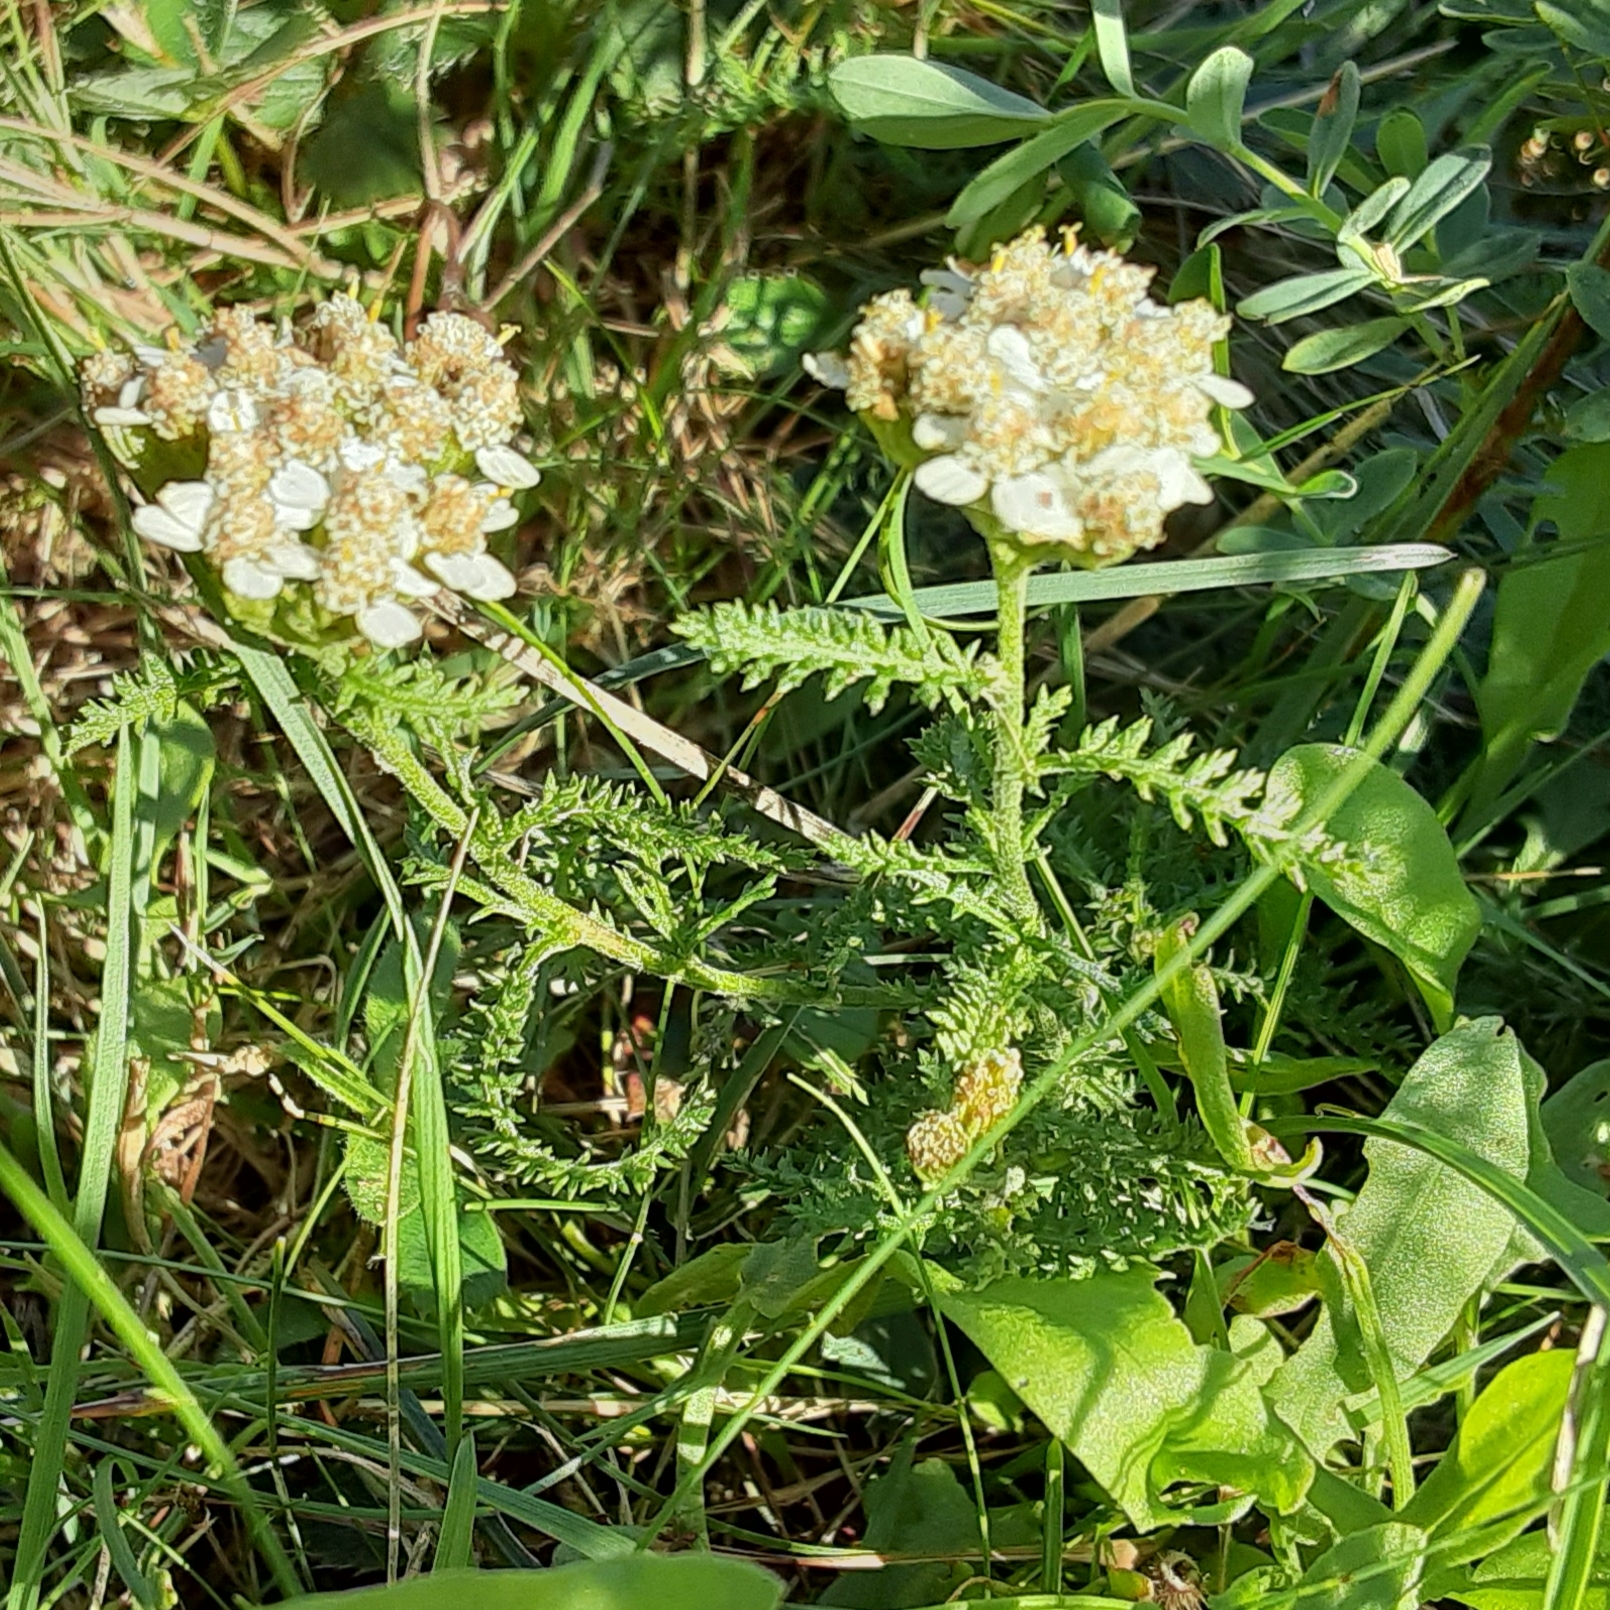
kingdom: Plantae
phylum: Tracheophyta
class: Magnoliopsida
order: Asterales
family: Asteraceae
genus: Achillea
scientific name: Achillea millefolium
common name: Yarrow
